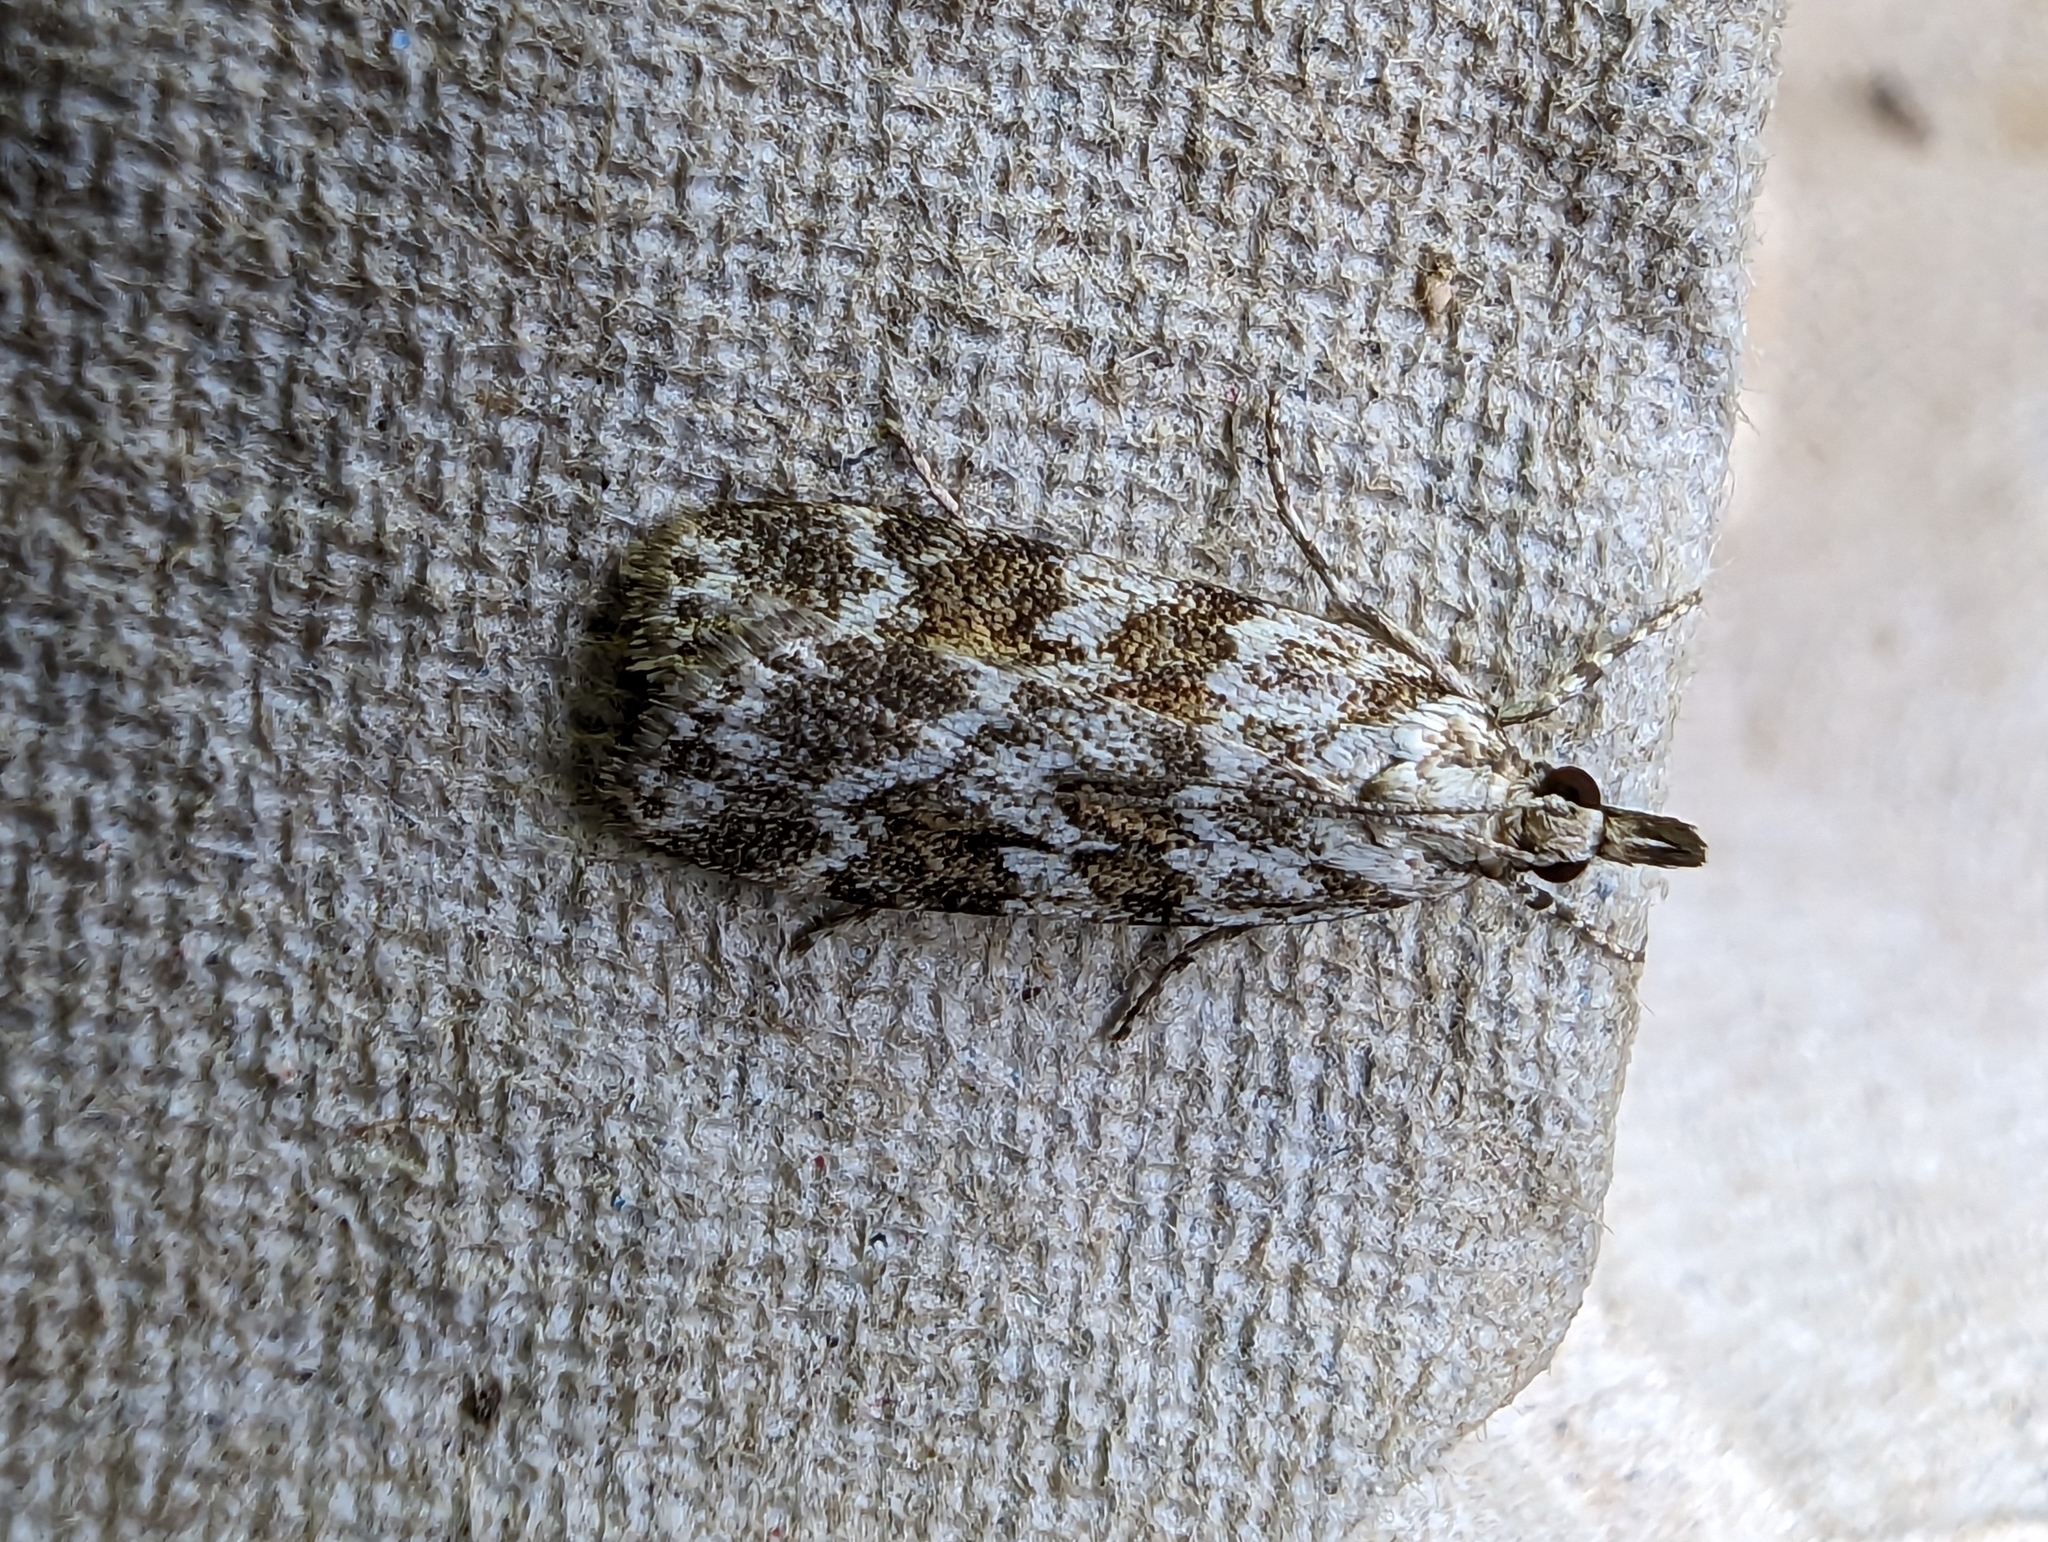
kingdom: Animalia
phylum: Arthropoda
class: Insecta
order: Lepidoptera
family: Crambidae
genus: Scoparia
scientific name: Scoparia pyralella
